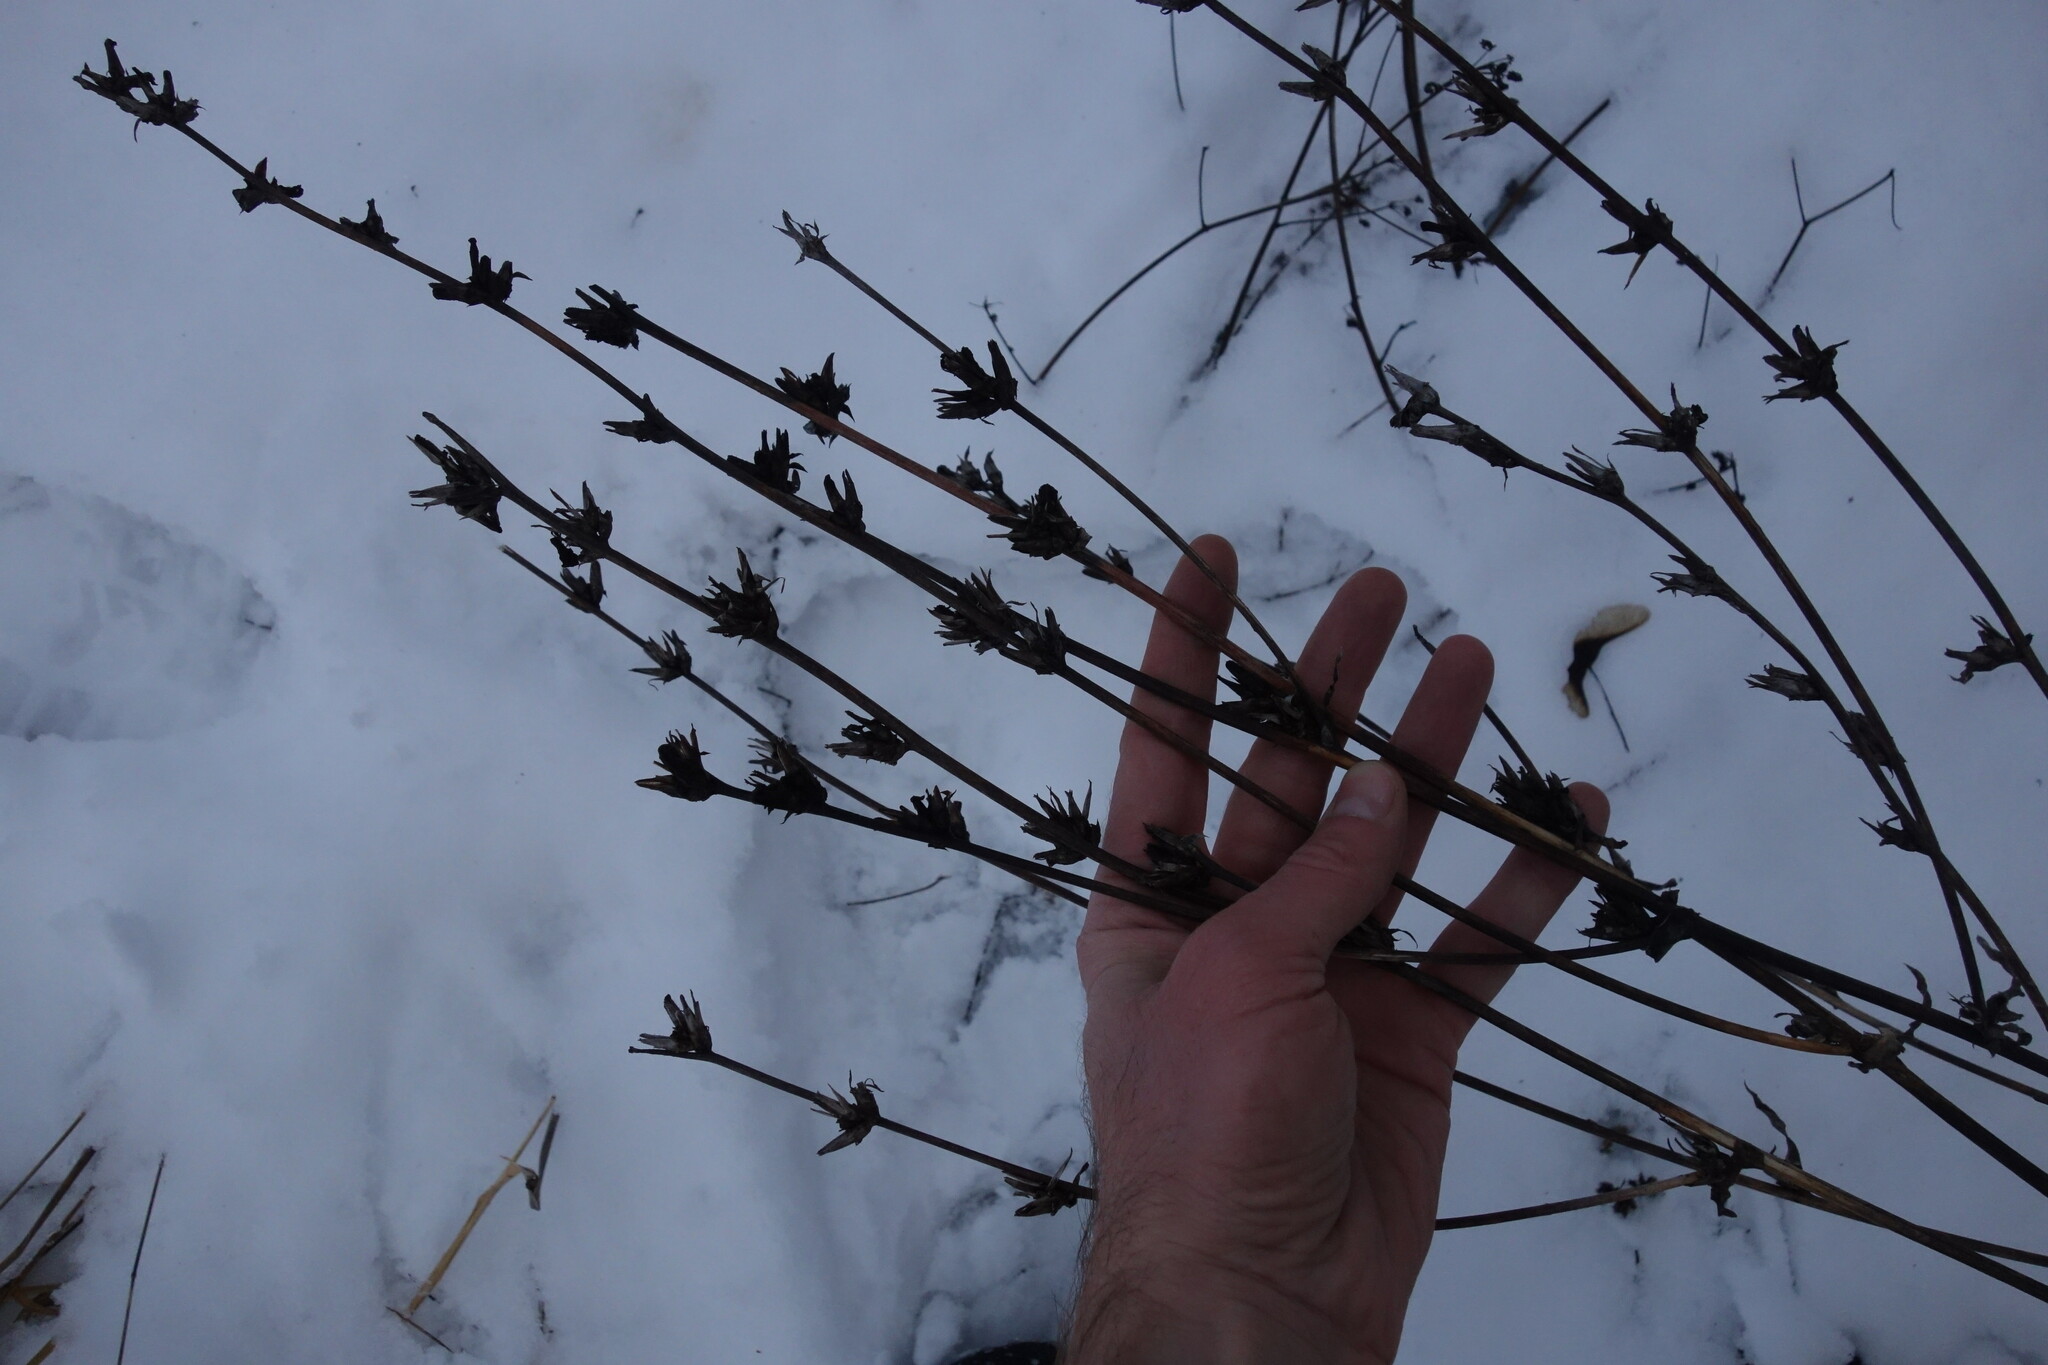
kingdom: Plantae
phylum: Tracheophyta
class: Magnoliopsida
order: Asterales
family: Asteraceae
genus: Cichorium
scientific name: Cichorium intybus
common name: Chicory
